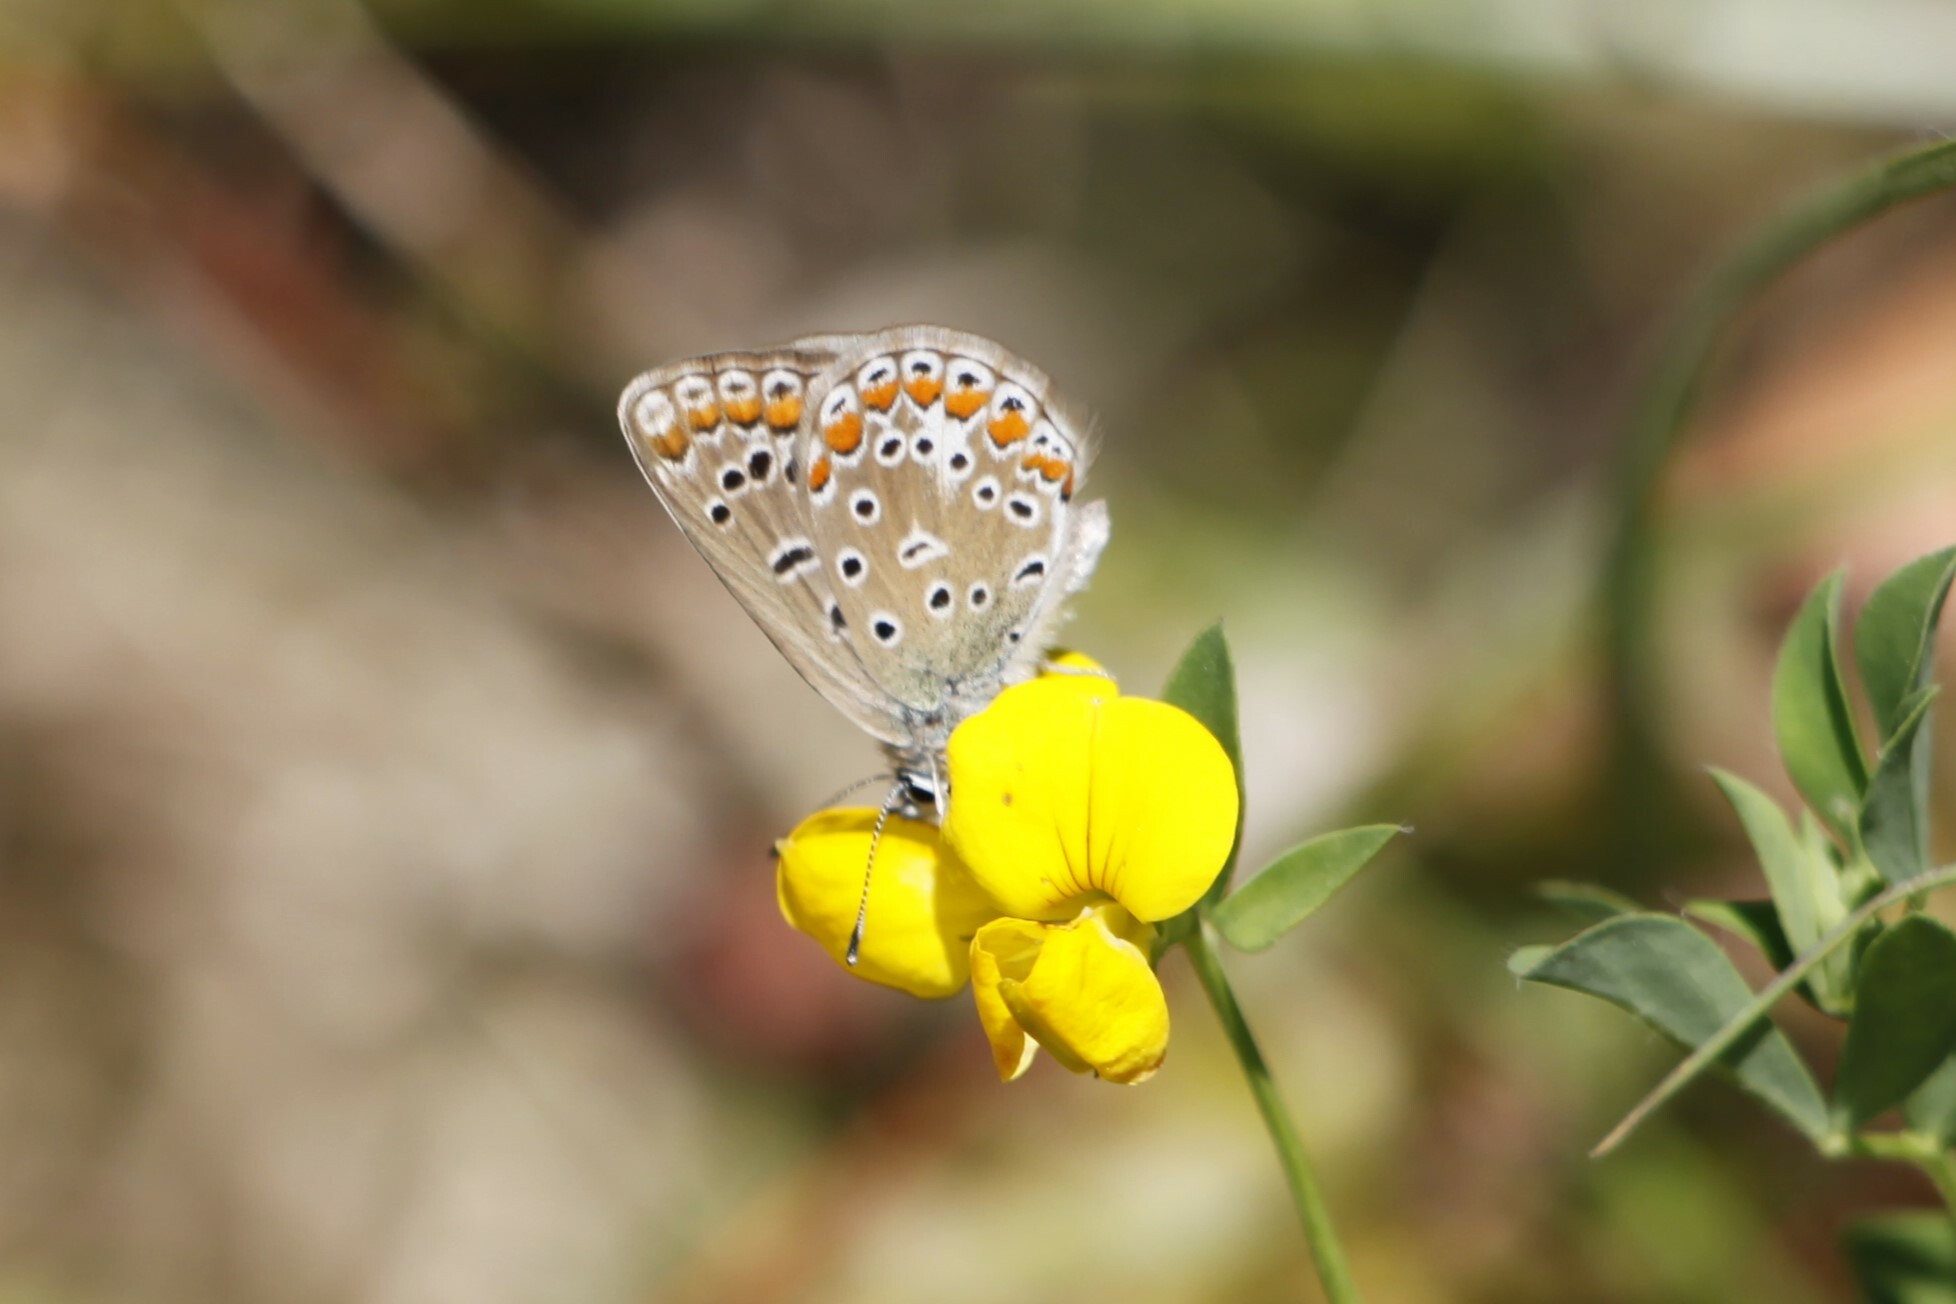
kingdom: Animalia
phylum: Arthropoda
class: Insecta
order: Lepidoptera
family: Lycaenidae
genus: Polyommatus
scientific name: Polyommatus icarus
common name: Common blue
